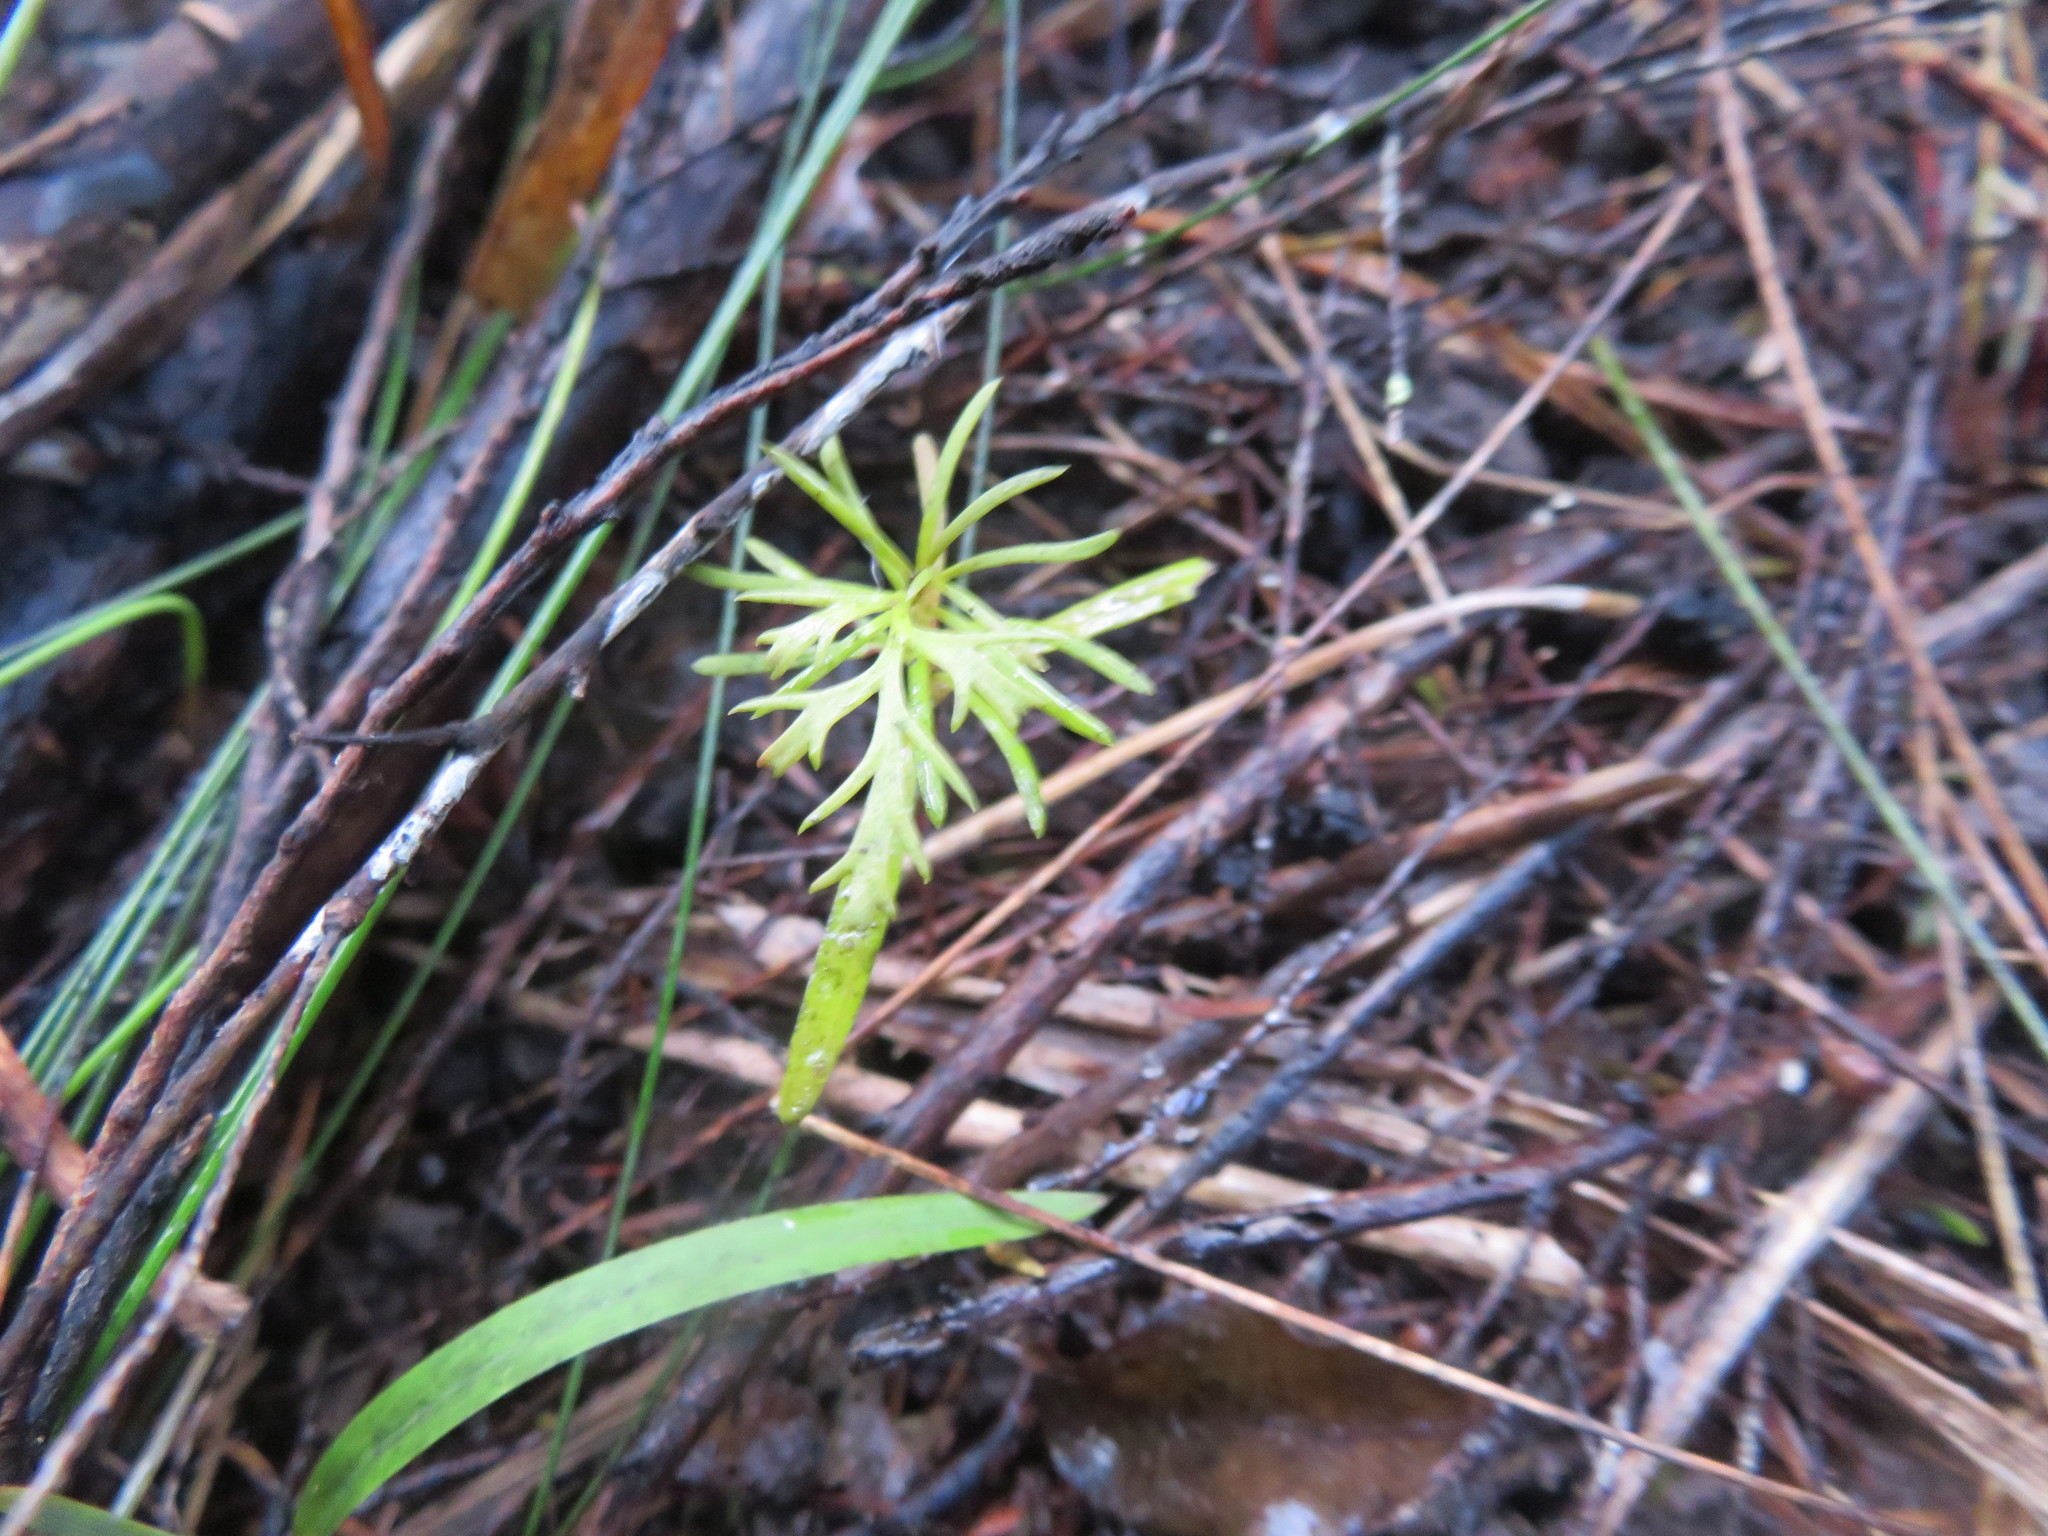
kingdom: Plantae
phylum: Tracheophyta
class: Pinopsida
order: Pinales
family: Phyllocladaceae
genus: Phyllocladus
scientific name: Phyllocladus trichomanoides
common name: Celery pine
